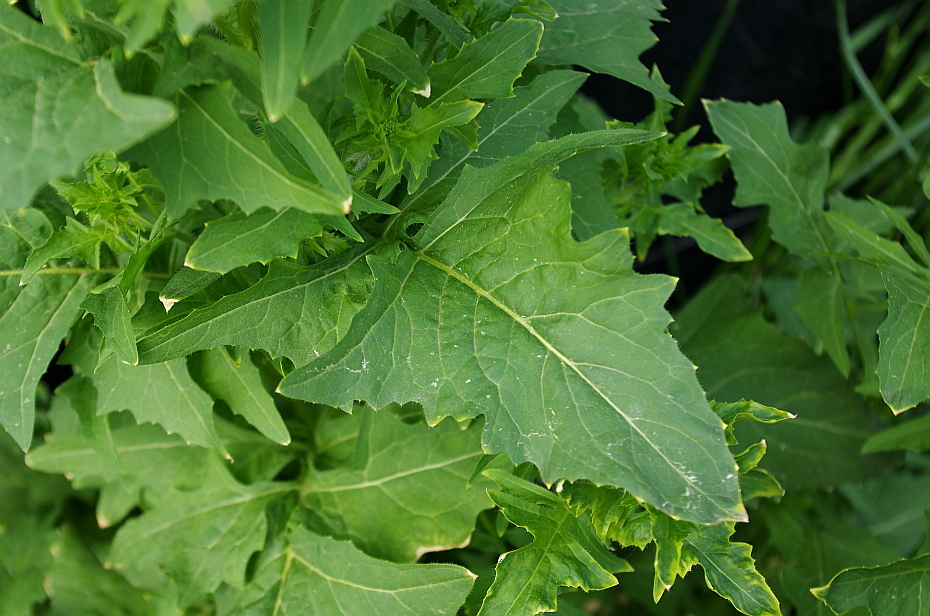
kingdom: Plantae
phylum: Tracheophyta
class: Magnoliopsida
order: Brassicales
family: Brassicaceae
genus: Sisymbrium
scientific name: Sisymbrium loeselii
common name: False london-rocket
